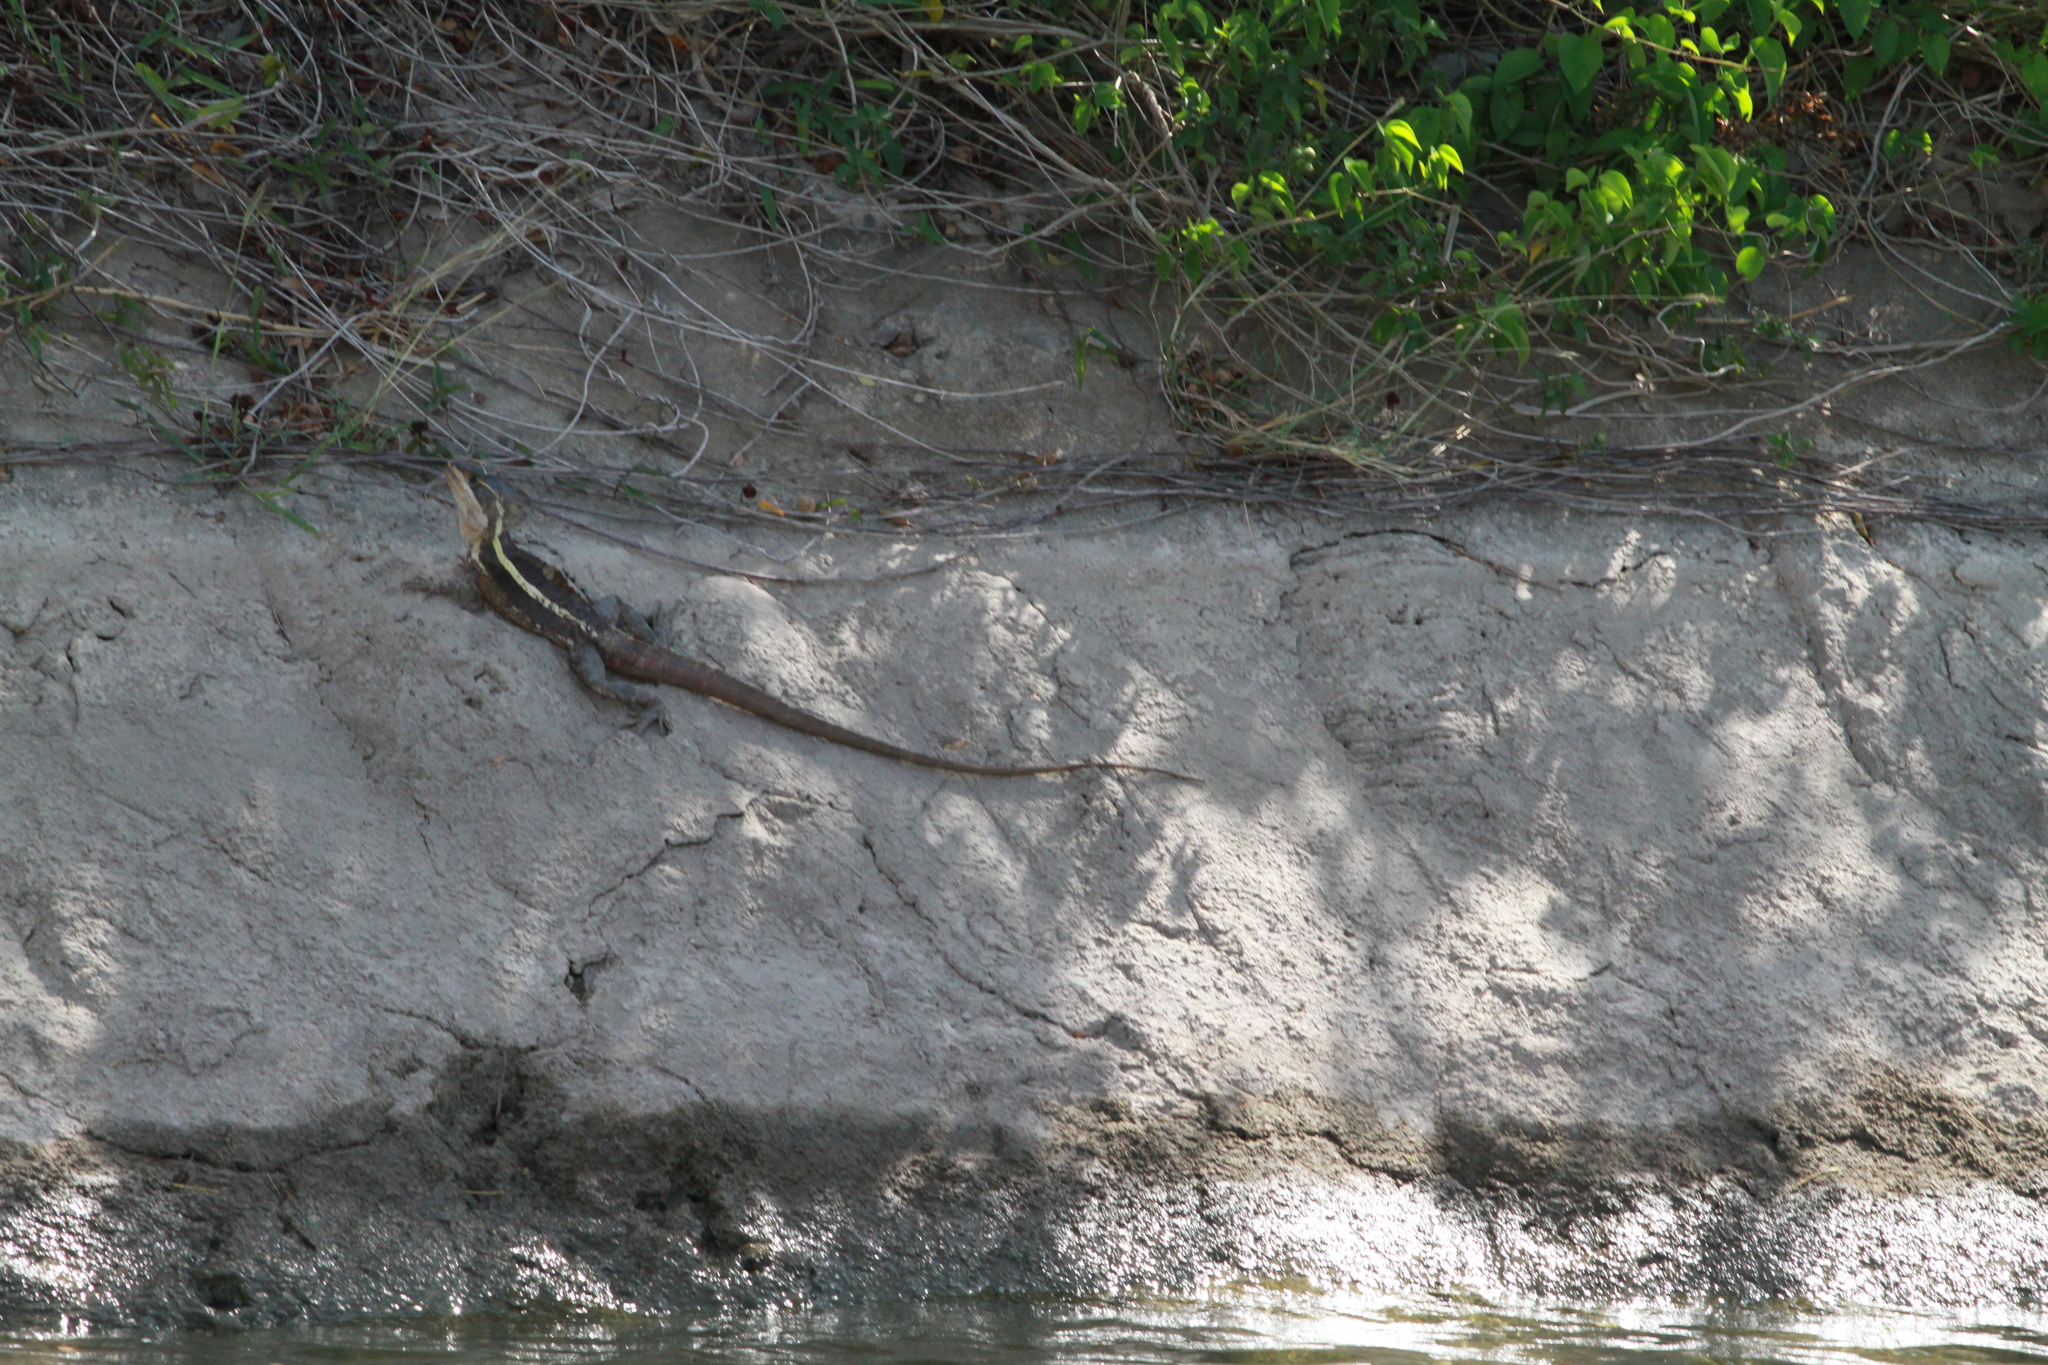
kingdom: Animalia
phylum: Chordata
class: Squamata
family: Corytophanidae
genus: Basiliscus
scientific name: Basiliscus vittatus
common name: Brown basilisk
